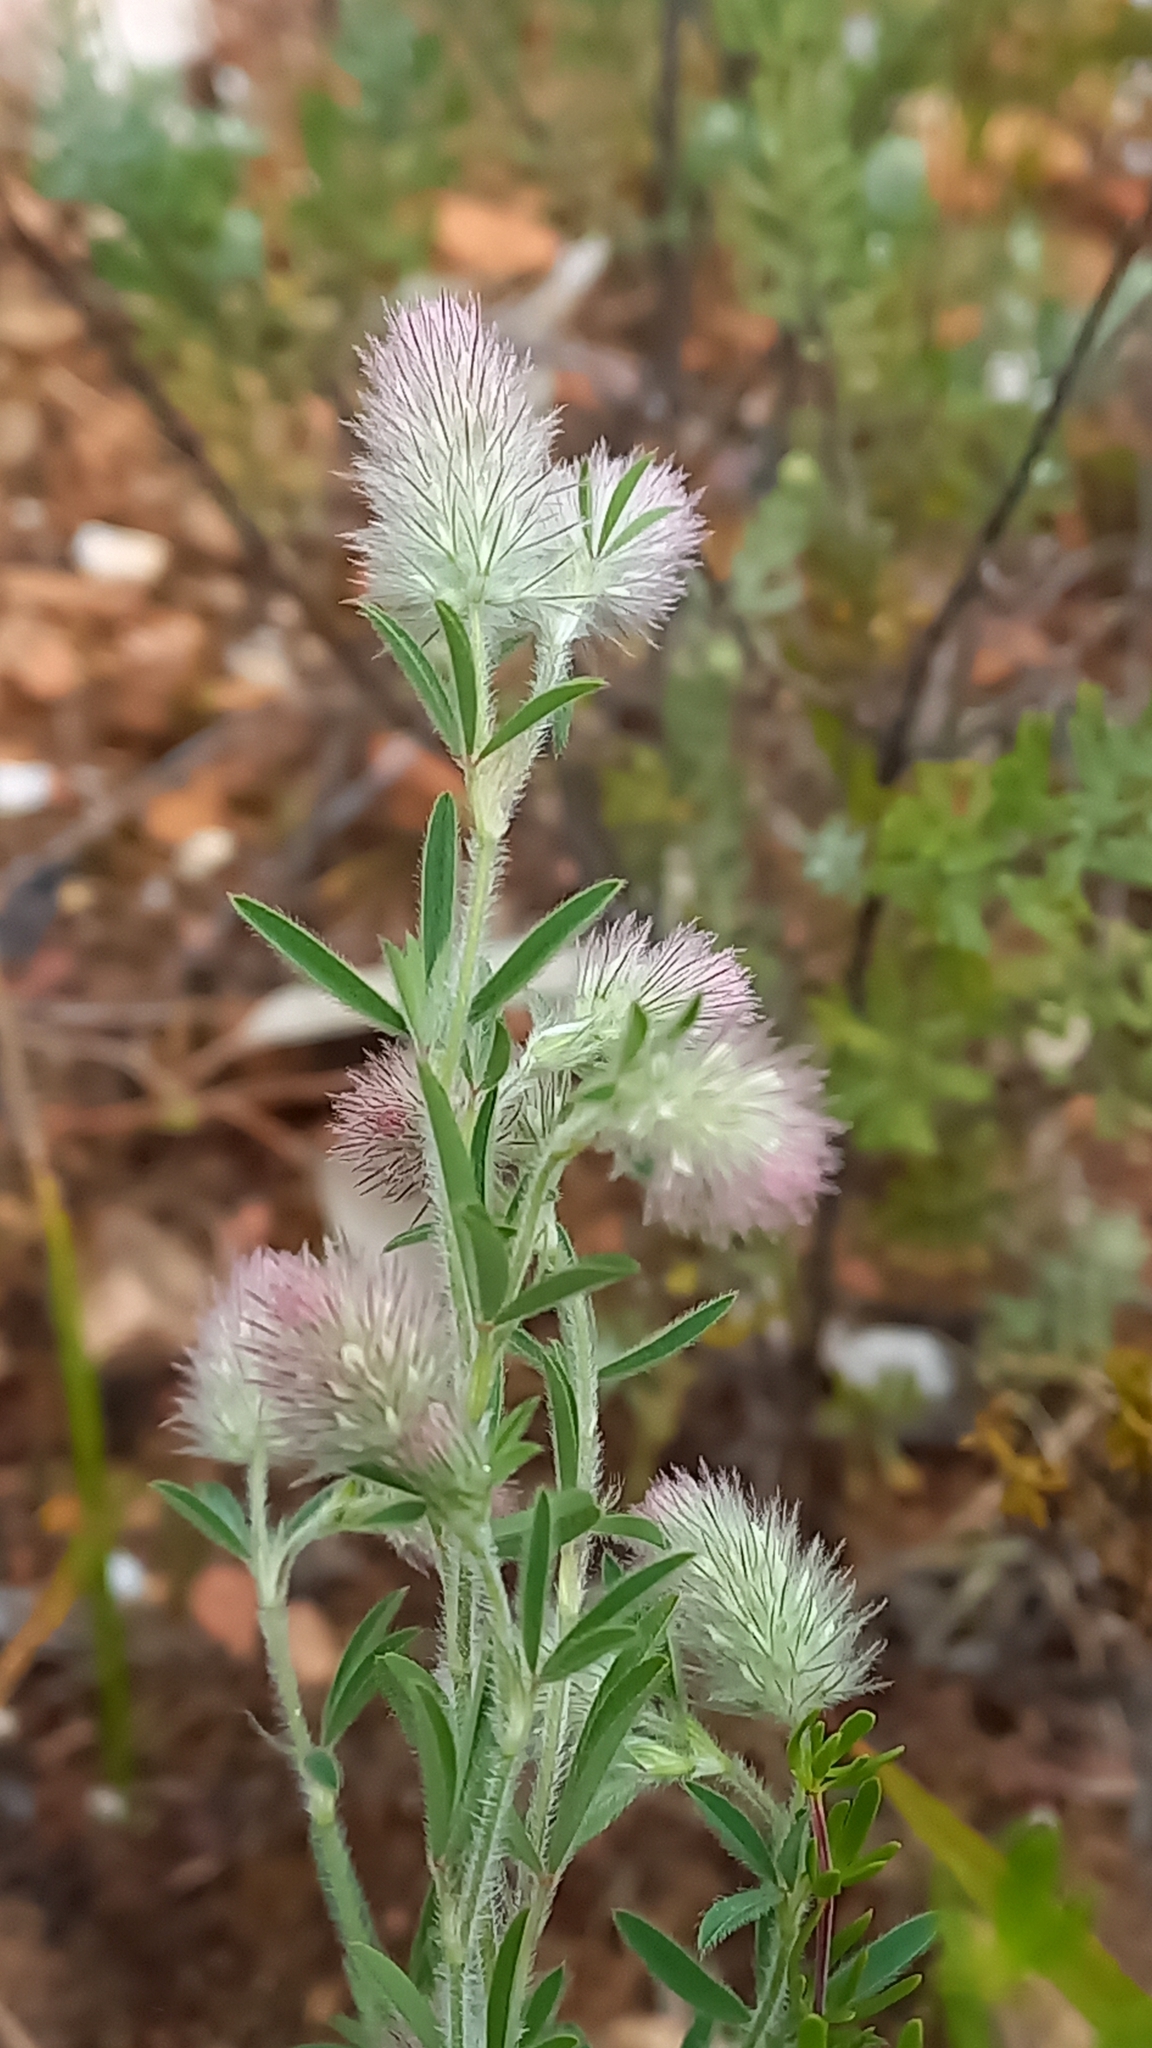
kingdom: Plantae
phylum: Tracheophyta
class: Magnoliopsida
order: Fabales
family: Fabaceae
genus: Trifolium
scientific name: Trifolium arvense
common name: Hare's-foot clover
